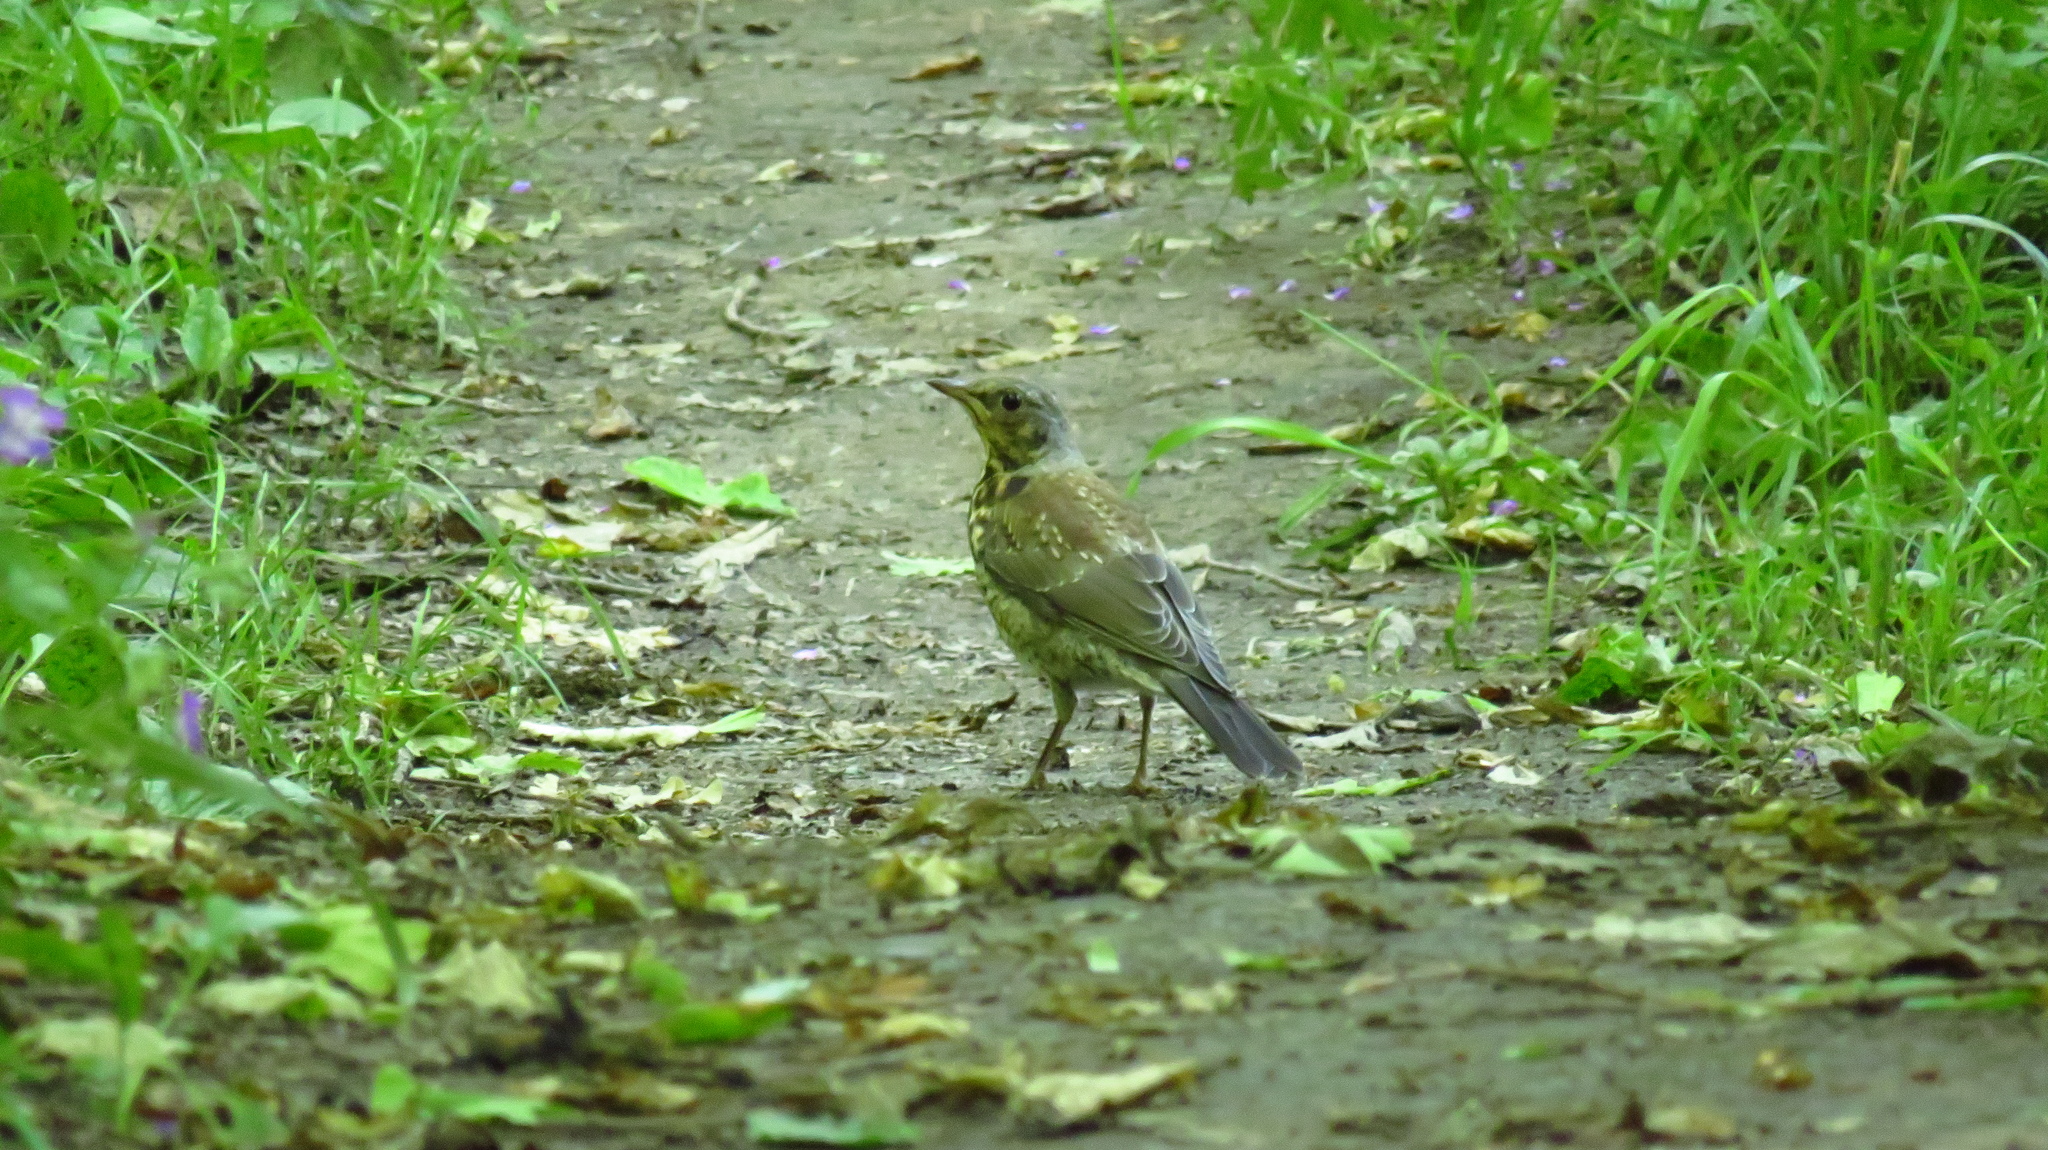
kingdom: Animalia
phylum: Chordata
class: Aves
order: Passeriformes
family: Turdidae
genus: Turdus
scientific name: Turdus pilaris
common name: Fieldfare
